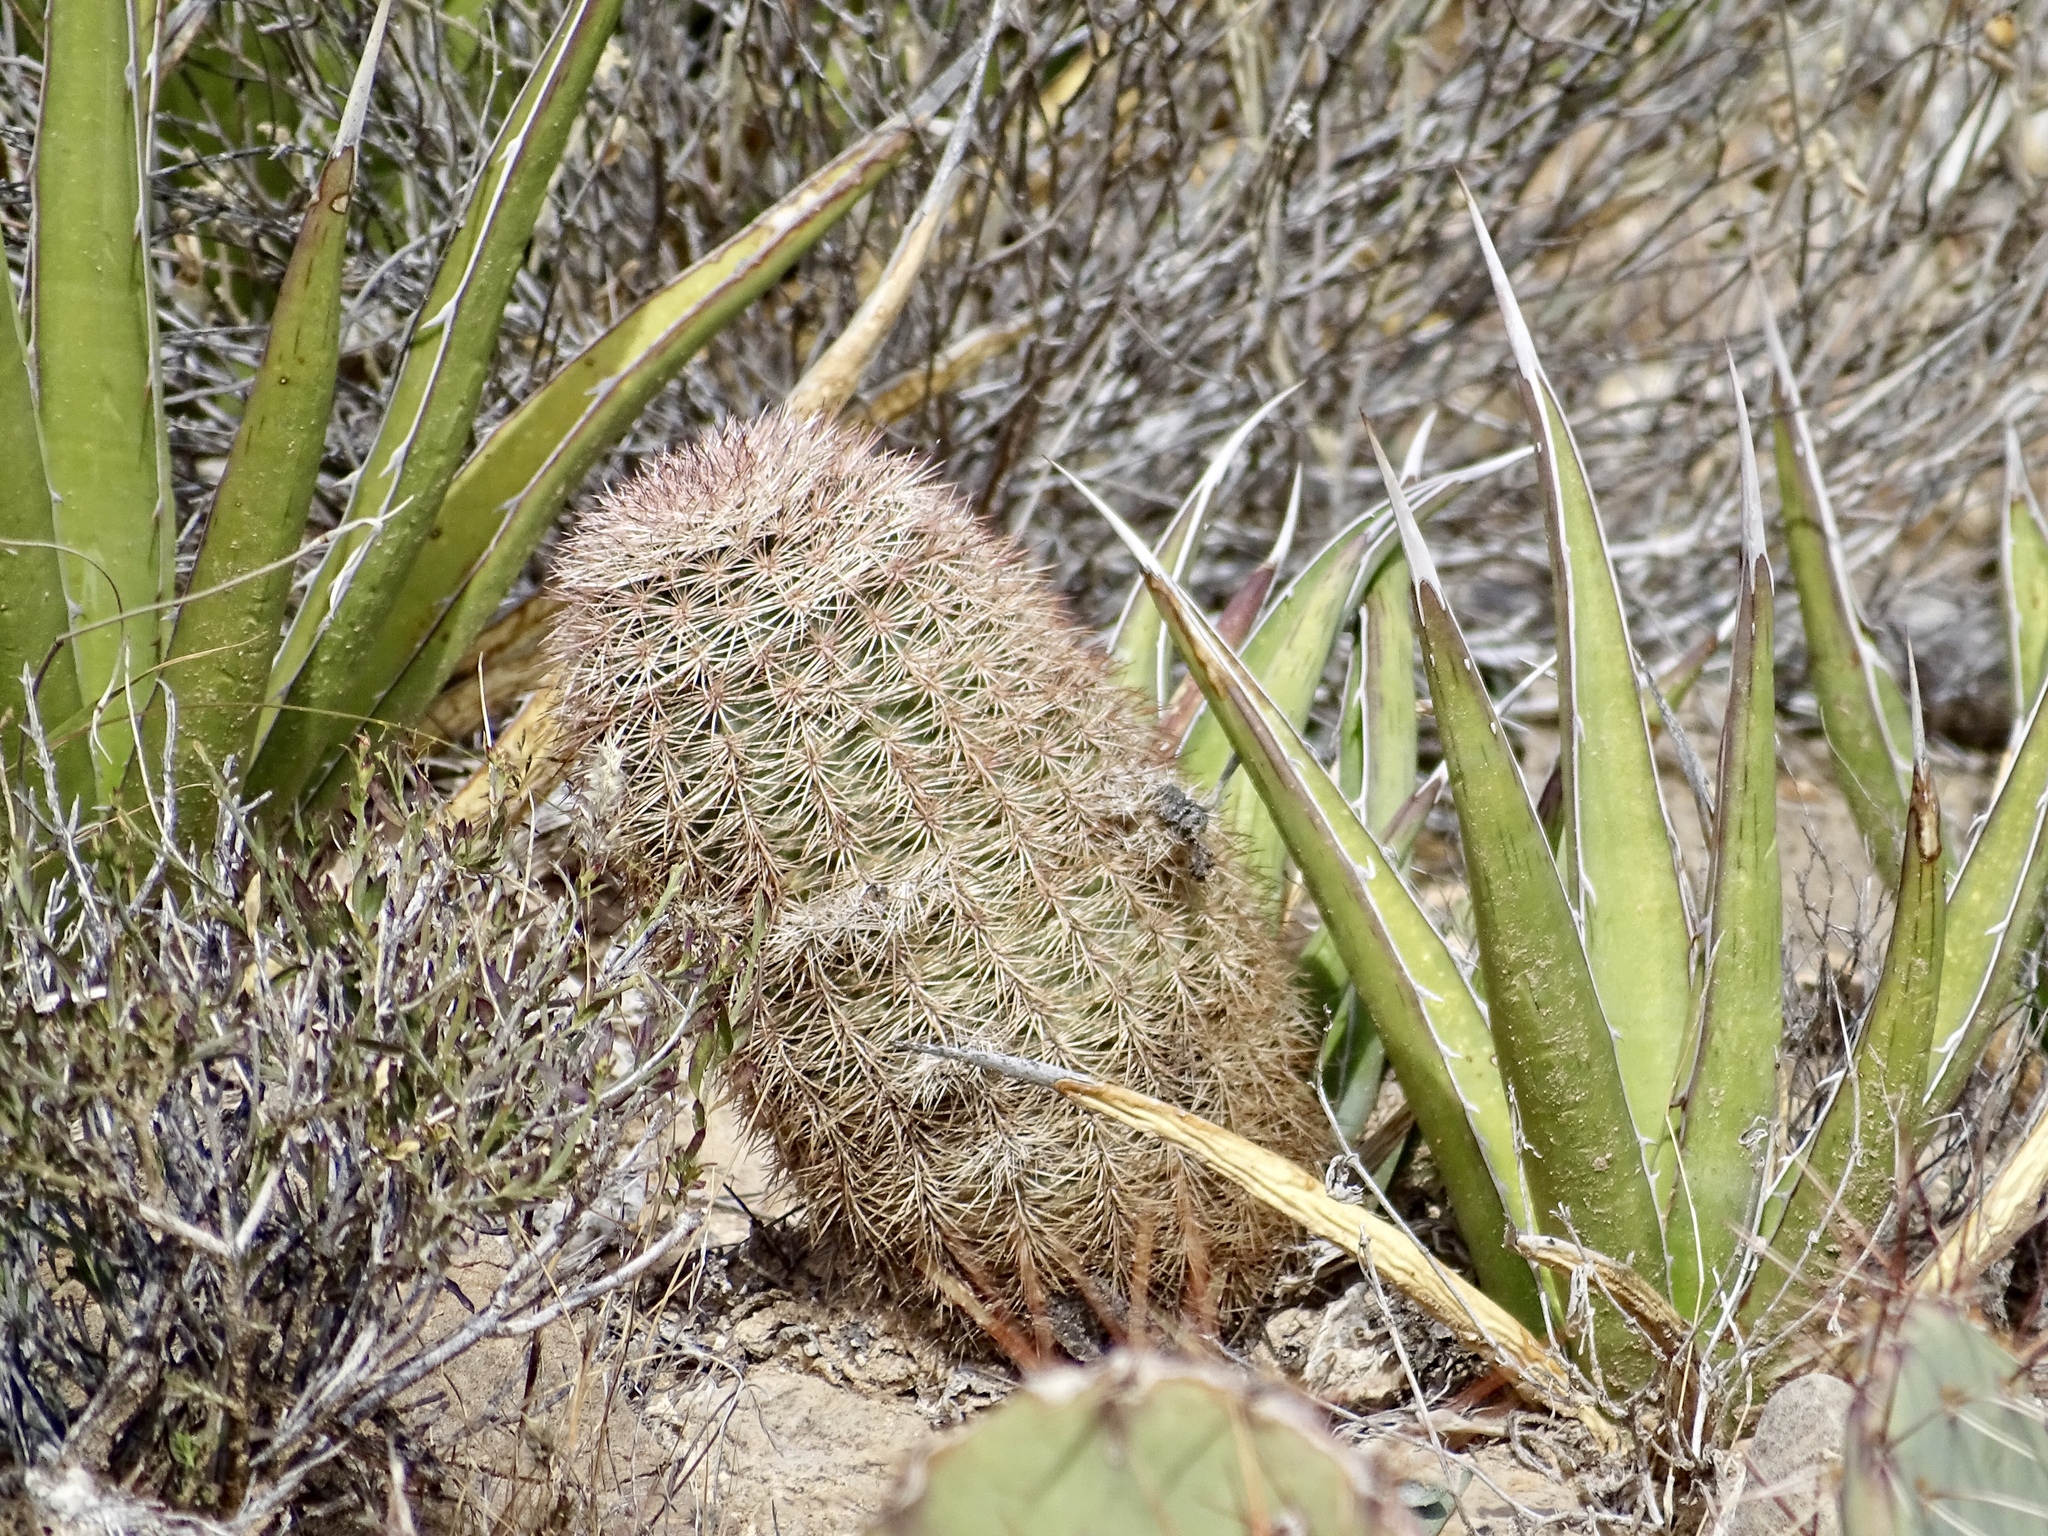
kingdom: Plantae
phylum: Tracheophyta
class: Magnoliopsida
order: Caryophyllales
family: Cactaceae
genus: Echinocereus
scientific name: Echinocereus dasyacanthus
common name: Spiny hedgehog cactus
